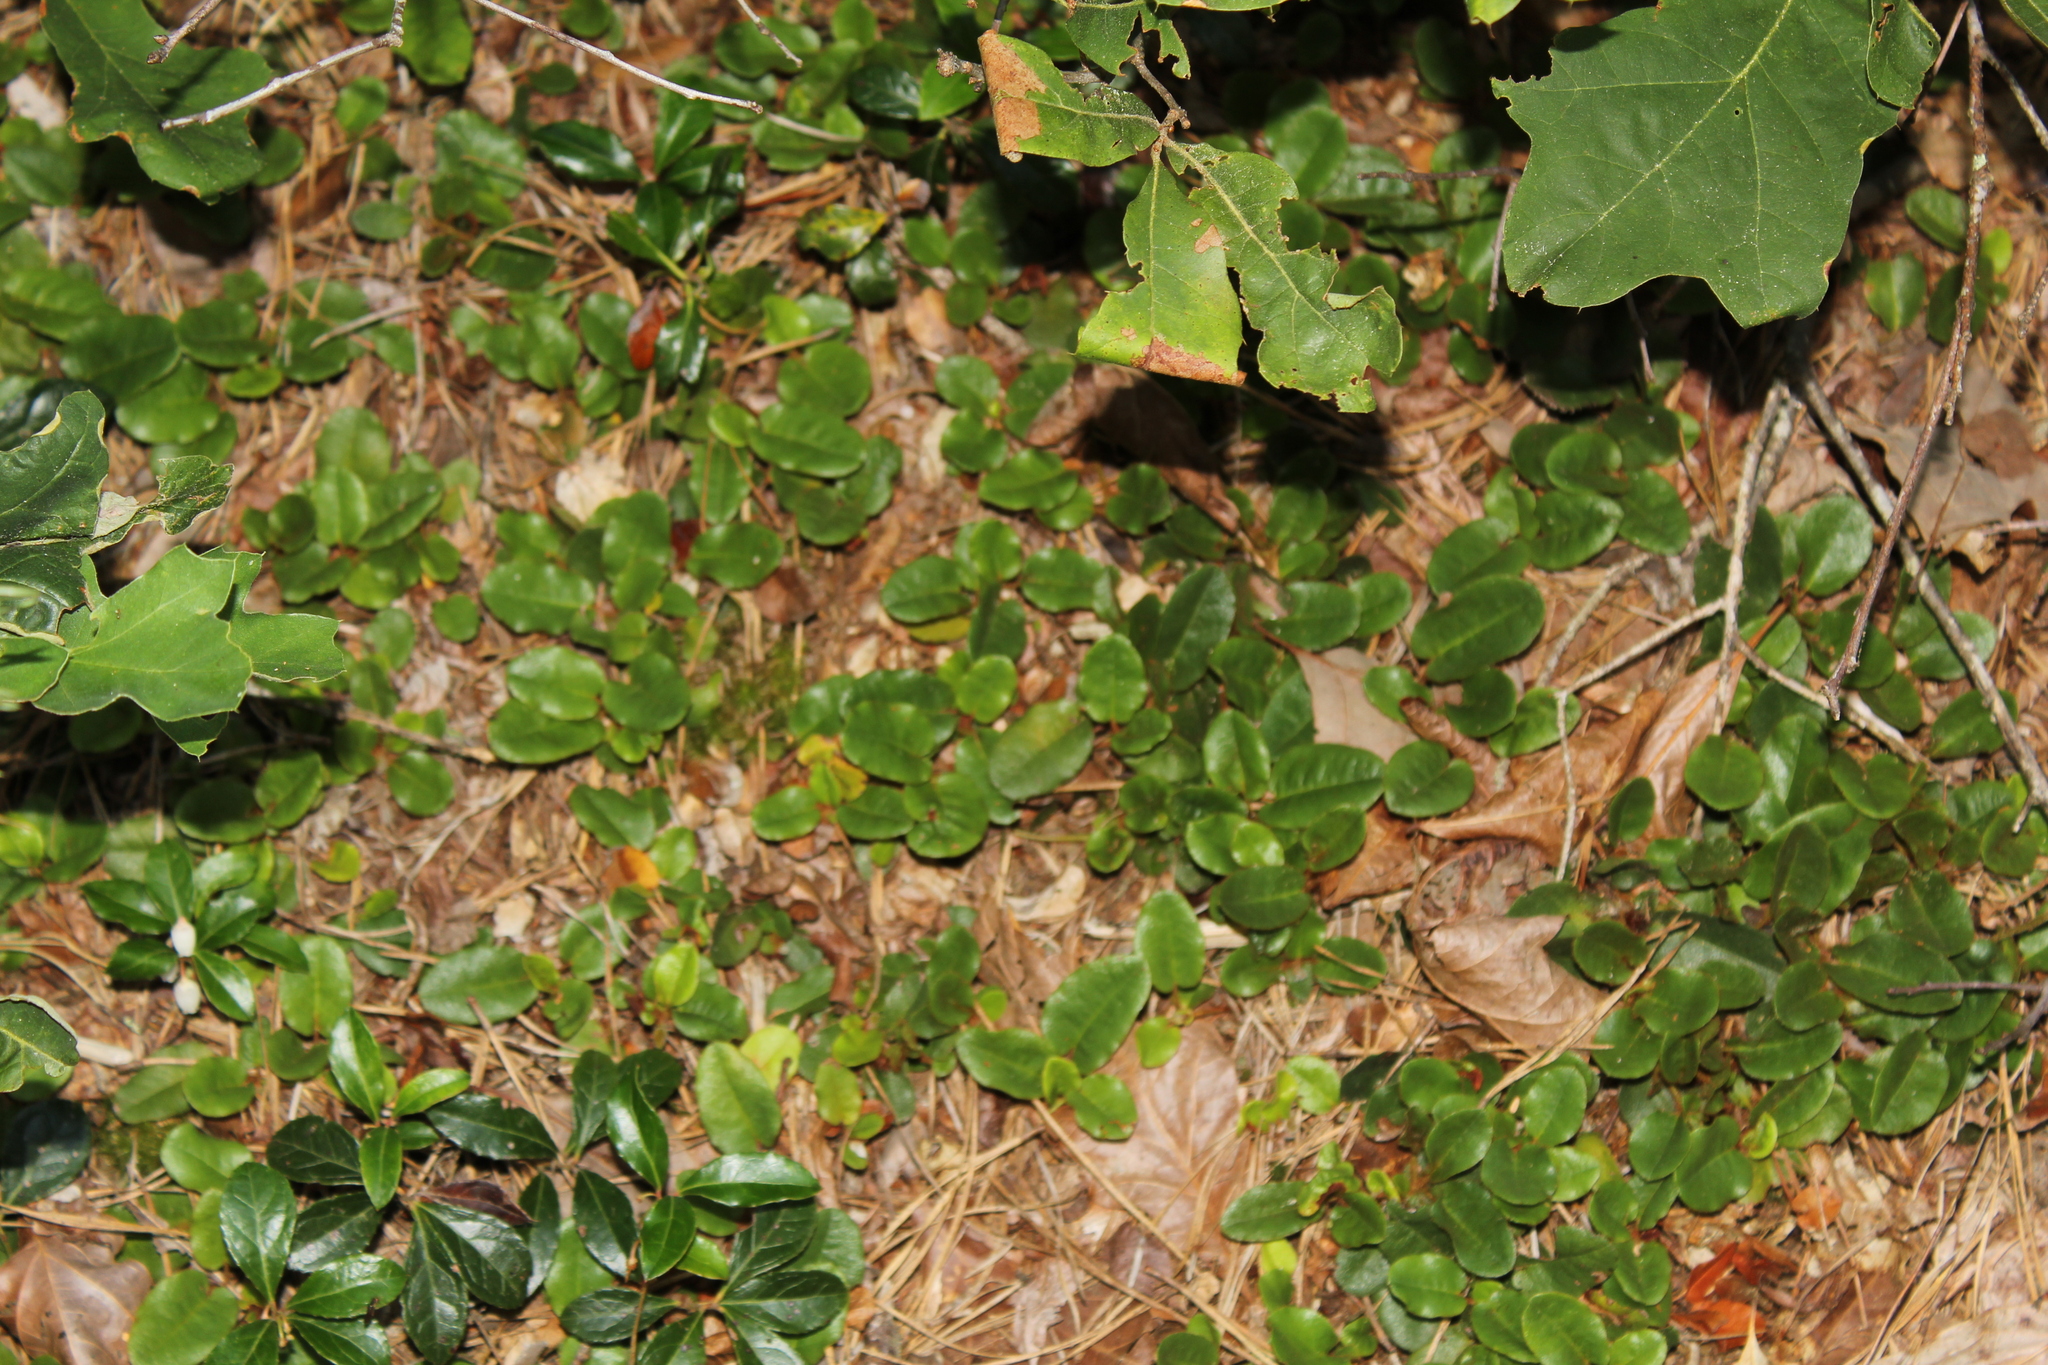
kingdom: Plantae
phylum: Tracheophyta
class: Magnoliopsida
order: Ericales
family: Ericaceae
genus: Epigaea
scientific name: Epigaea repens
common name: Gravelroot
